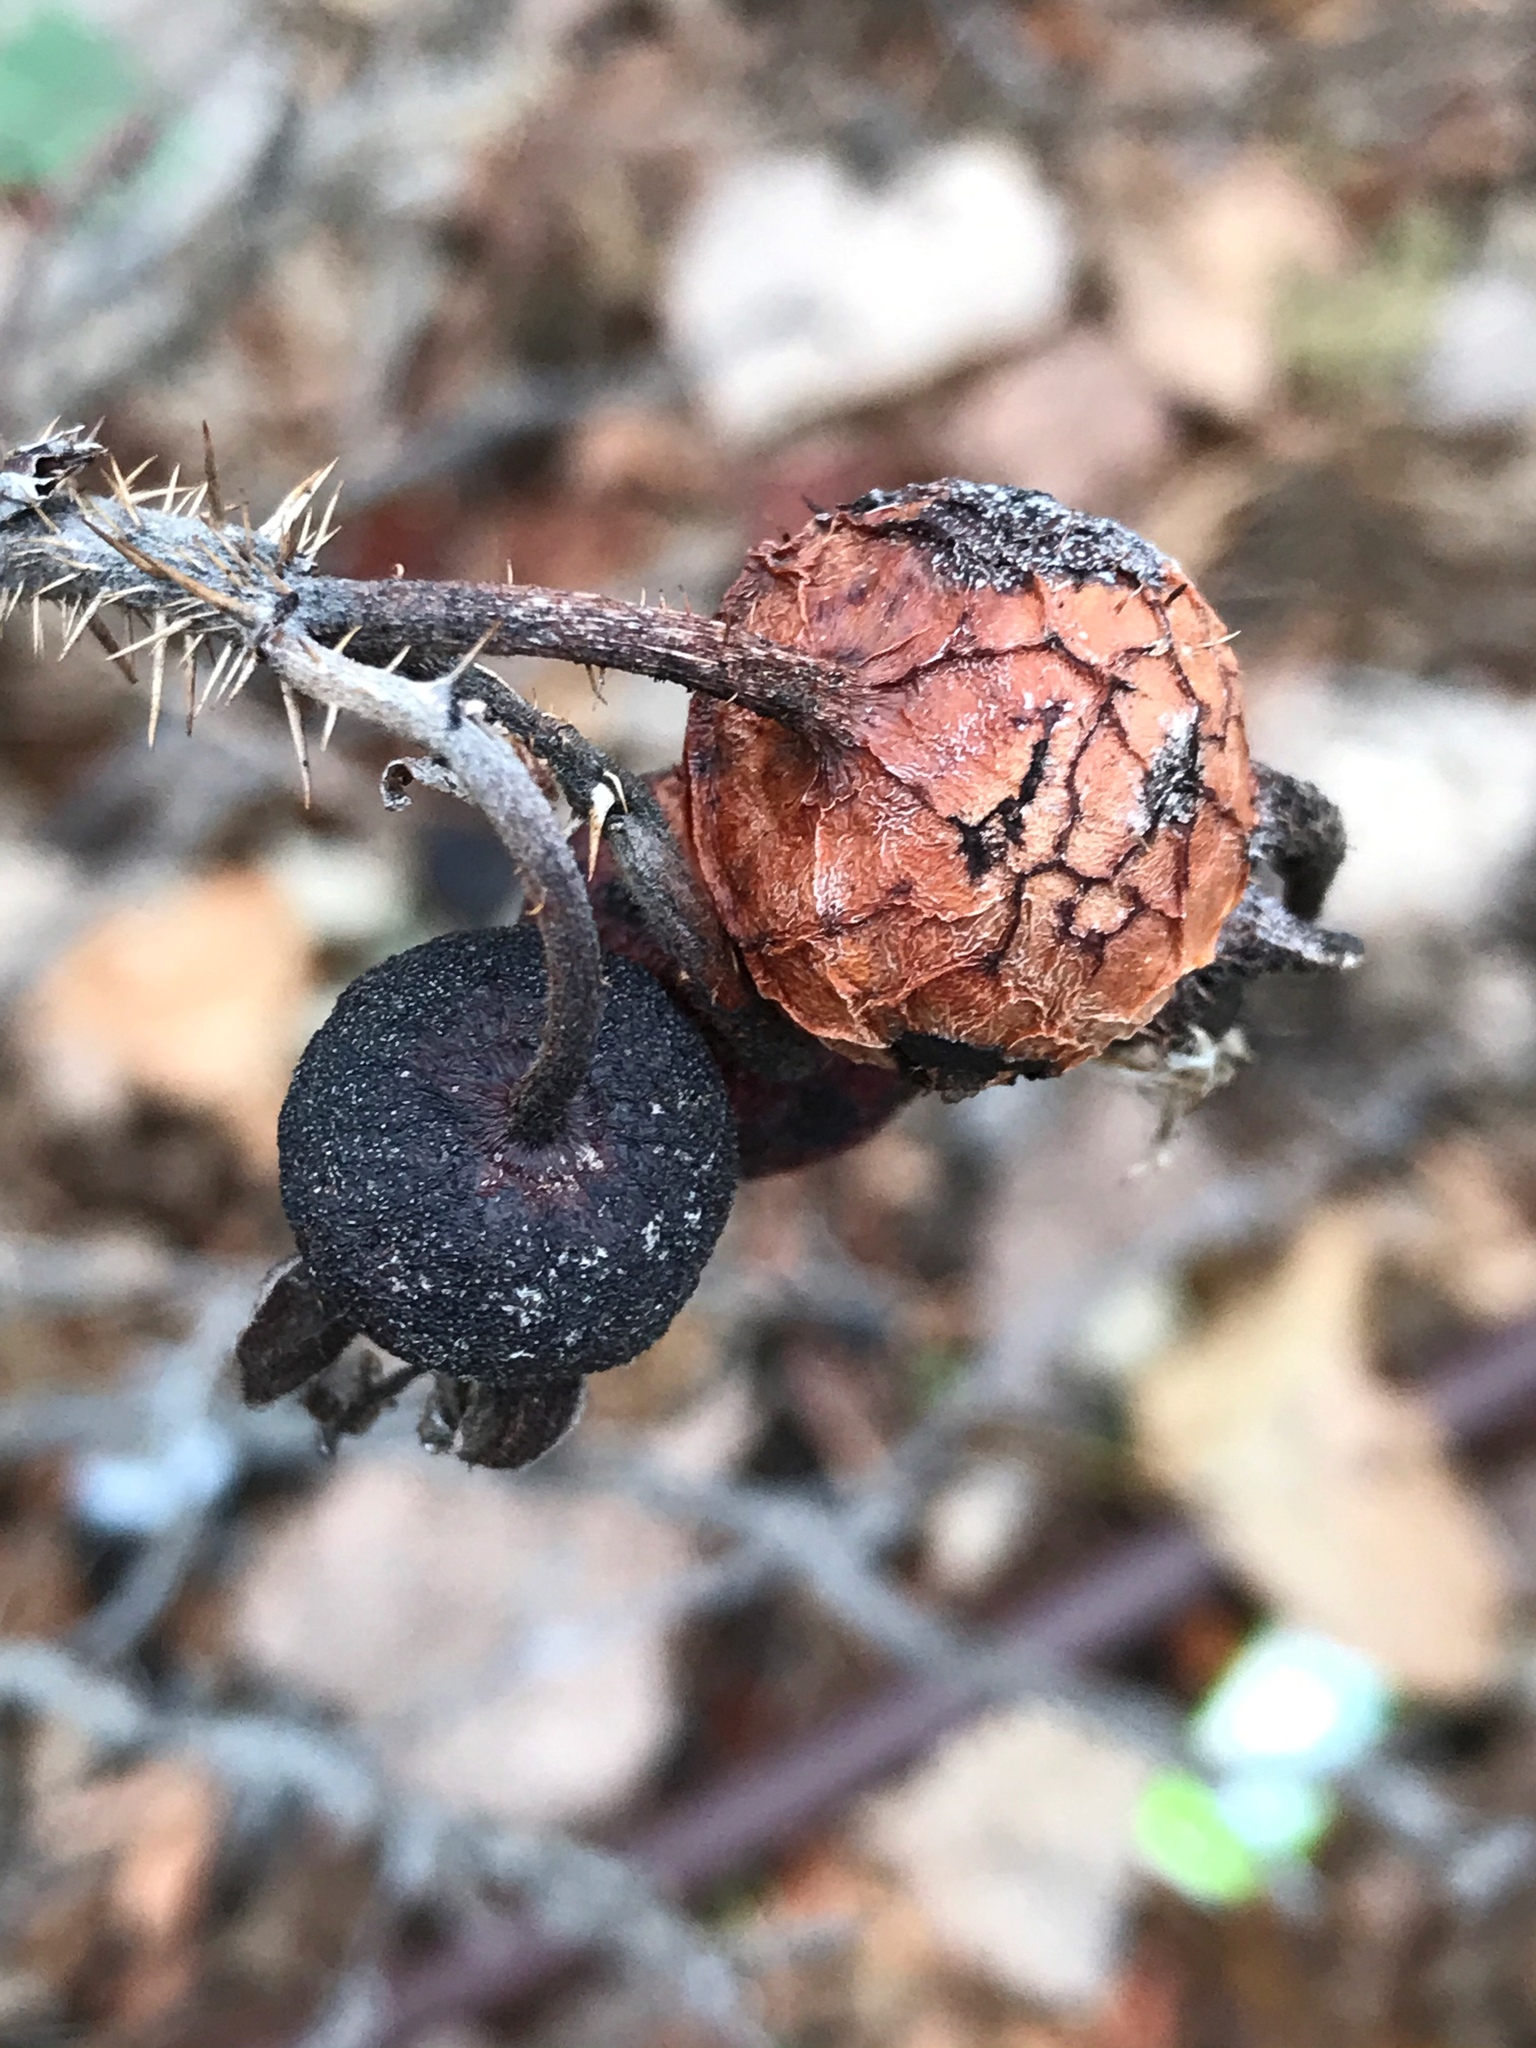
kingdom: Plantae
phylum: Tracheophyta
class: Magnoliopsida
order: Rosales
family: Rosaceae
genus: Rosa
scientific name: Rosa rugosa
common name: Japanese rose
